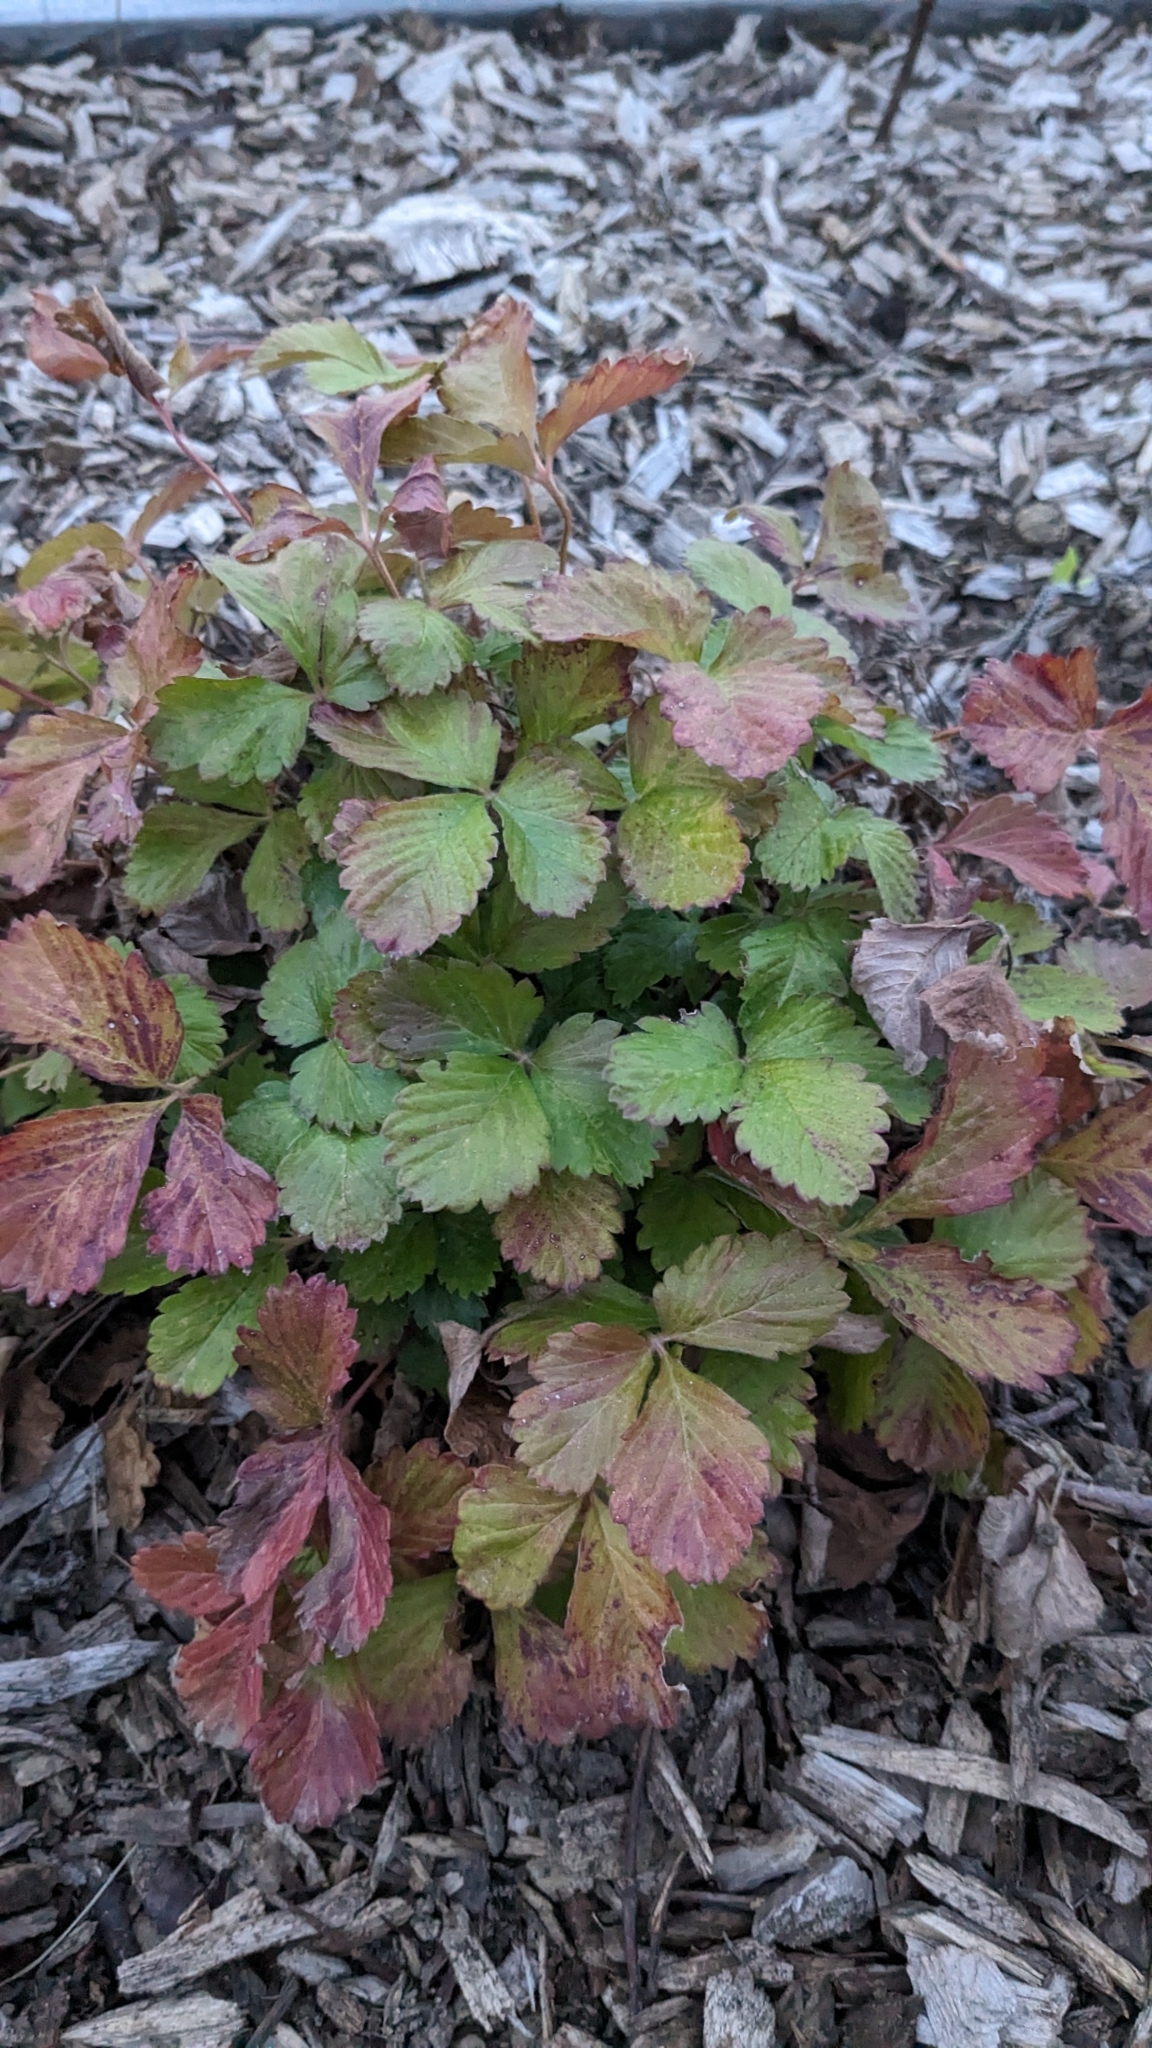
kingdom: Plantae
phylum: Tracheophyta
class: Magnoliopsida
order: Rosales
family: Rosaceae
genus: Potentilla
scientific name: Potentilla indica
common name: Yellow-flowered strawberry
